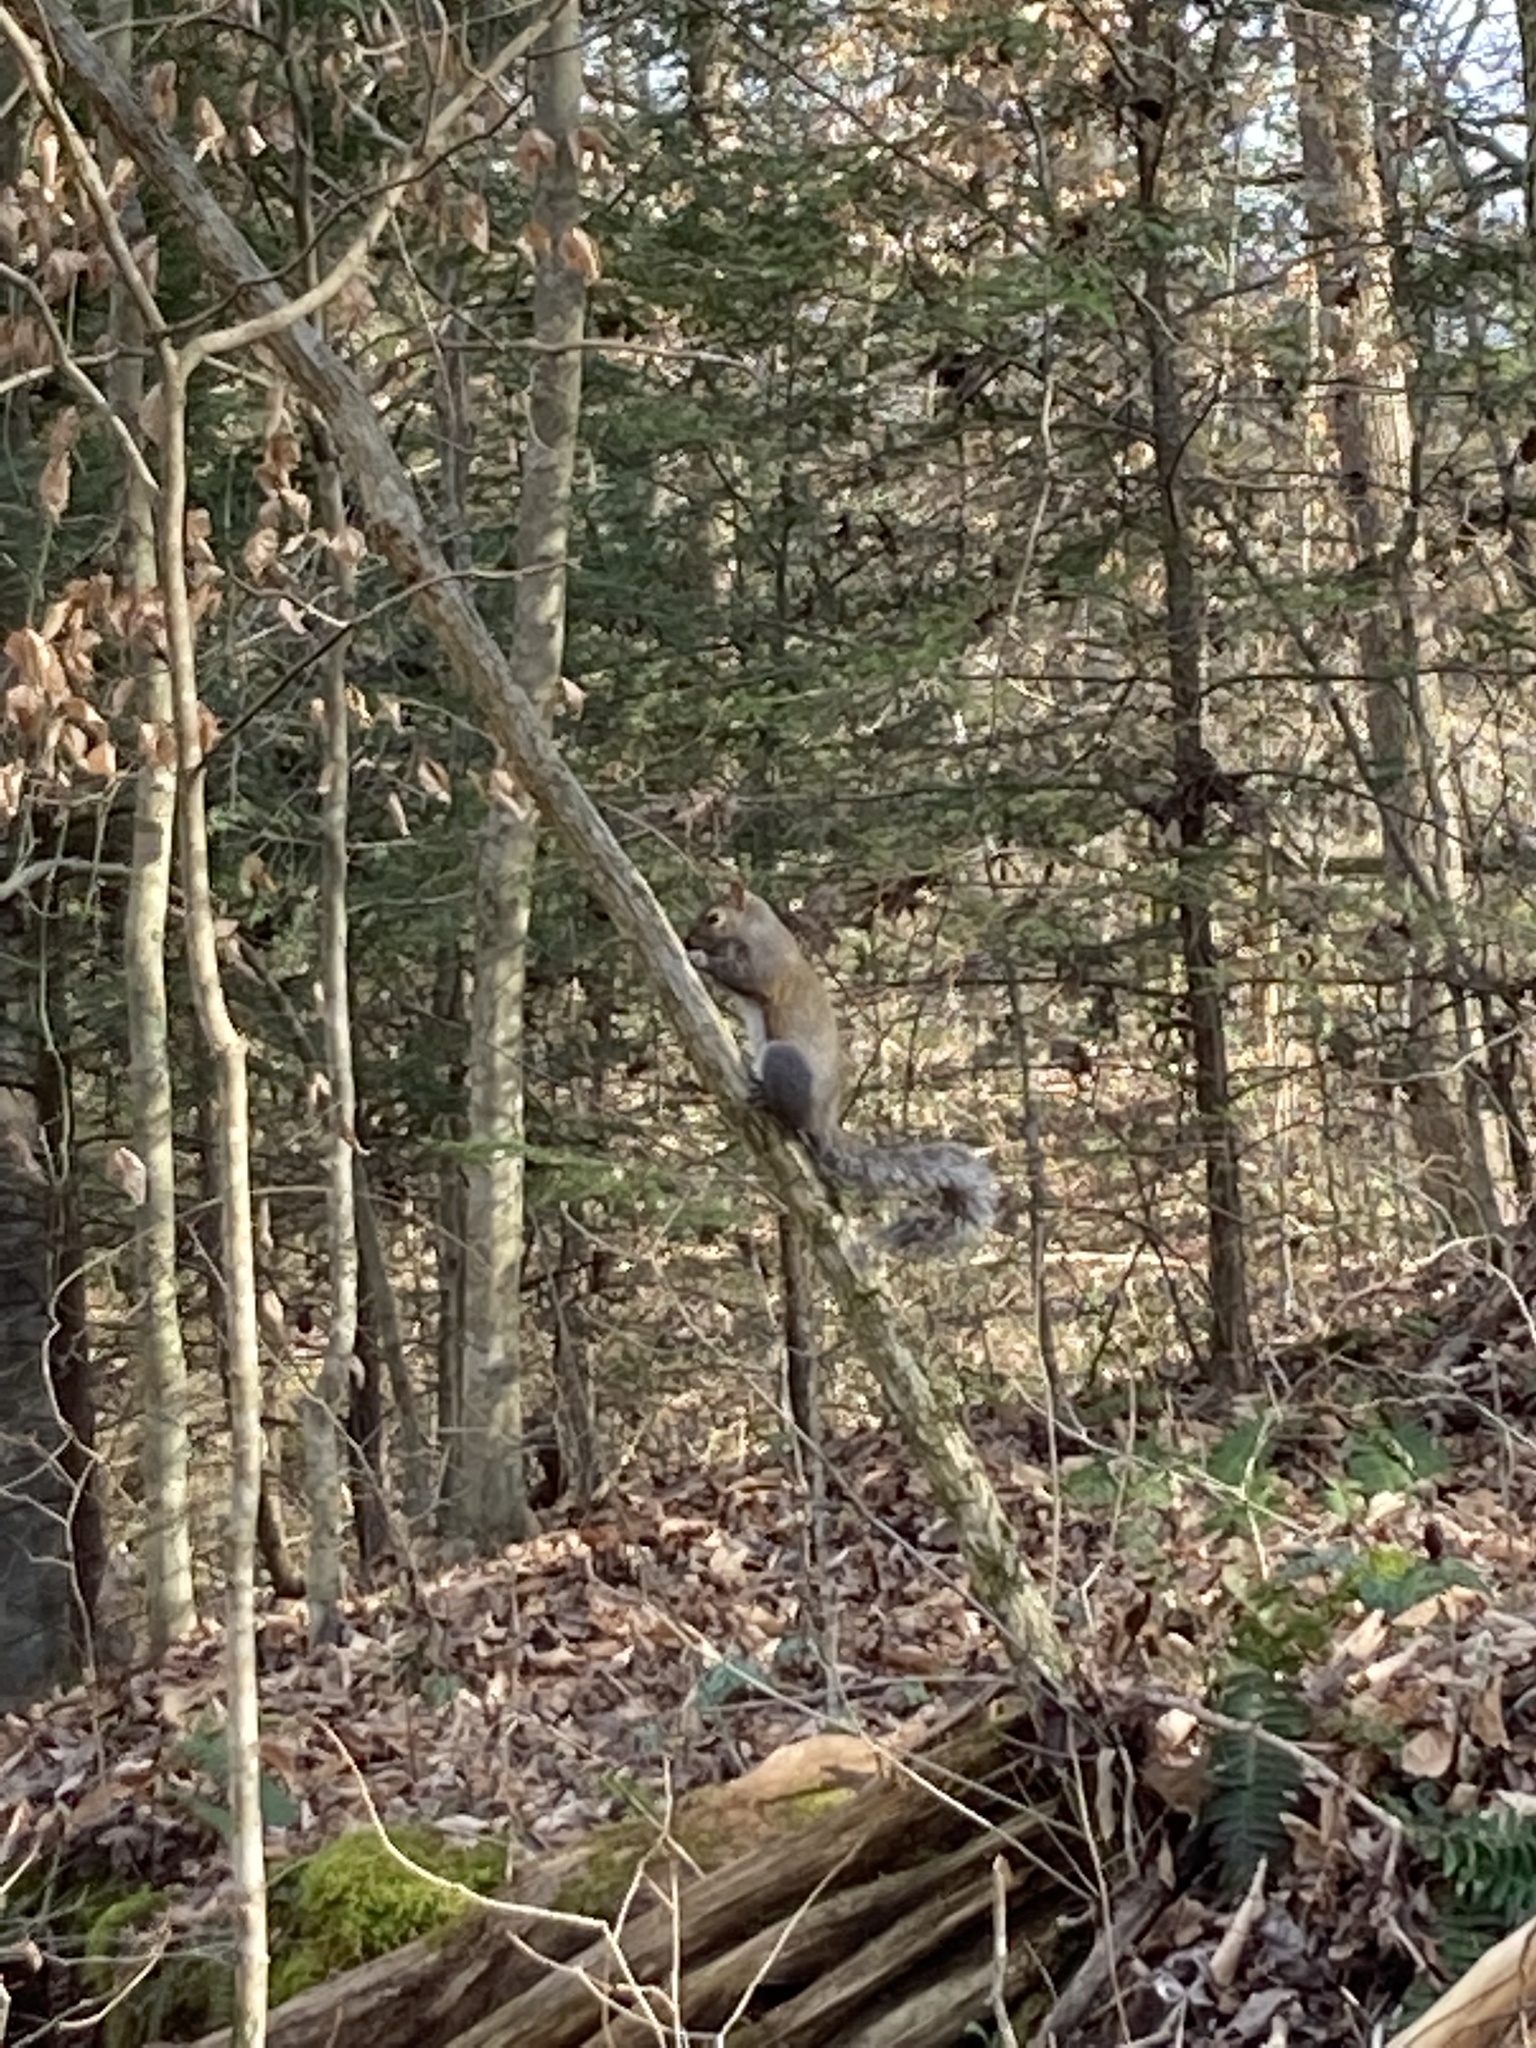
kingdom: Animalia
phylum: Chordata
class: Mammalia
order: Rodentia
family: Sciuridae
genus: Sciurus
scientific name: Sciurus carolinensis
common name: Eastern gray squirrel
